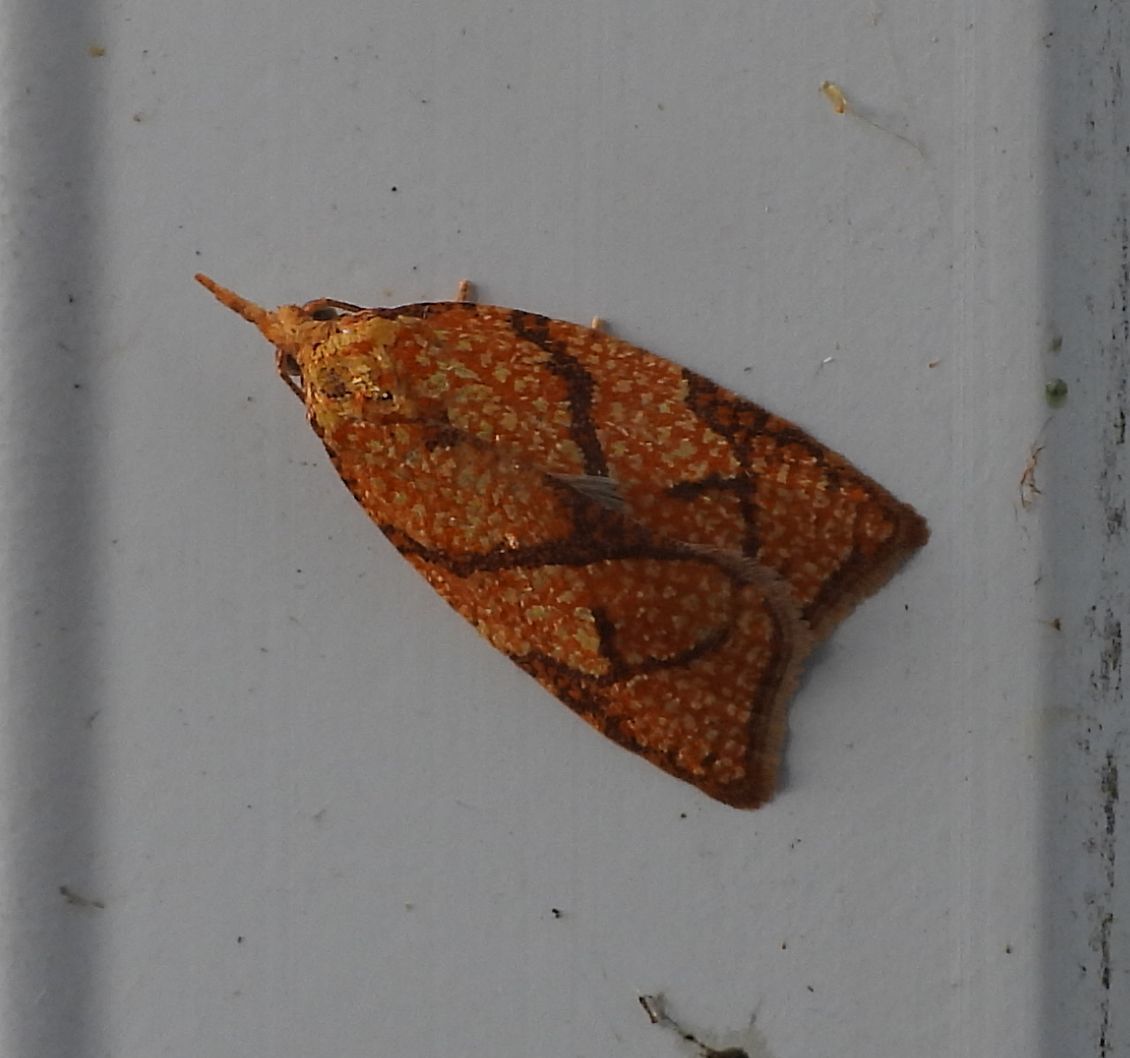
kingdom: Animalia
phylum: Arthropoda
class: Insecta
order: Lepidoptera
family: Tortricidae
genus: Cenopis
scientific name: Cenopis reticulatana
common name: Reticulated fruitworm moth
